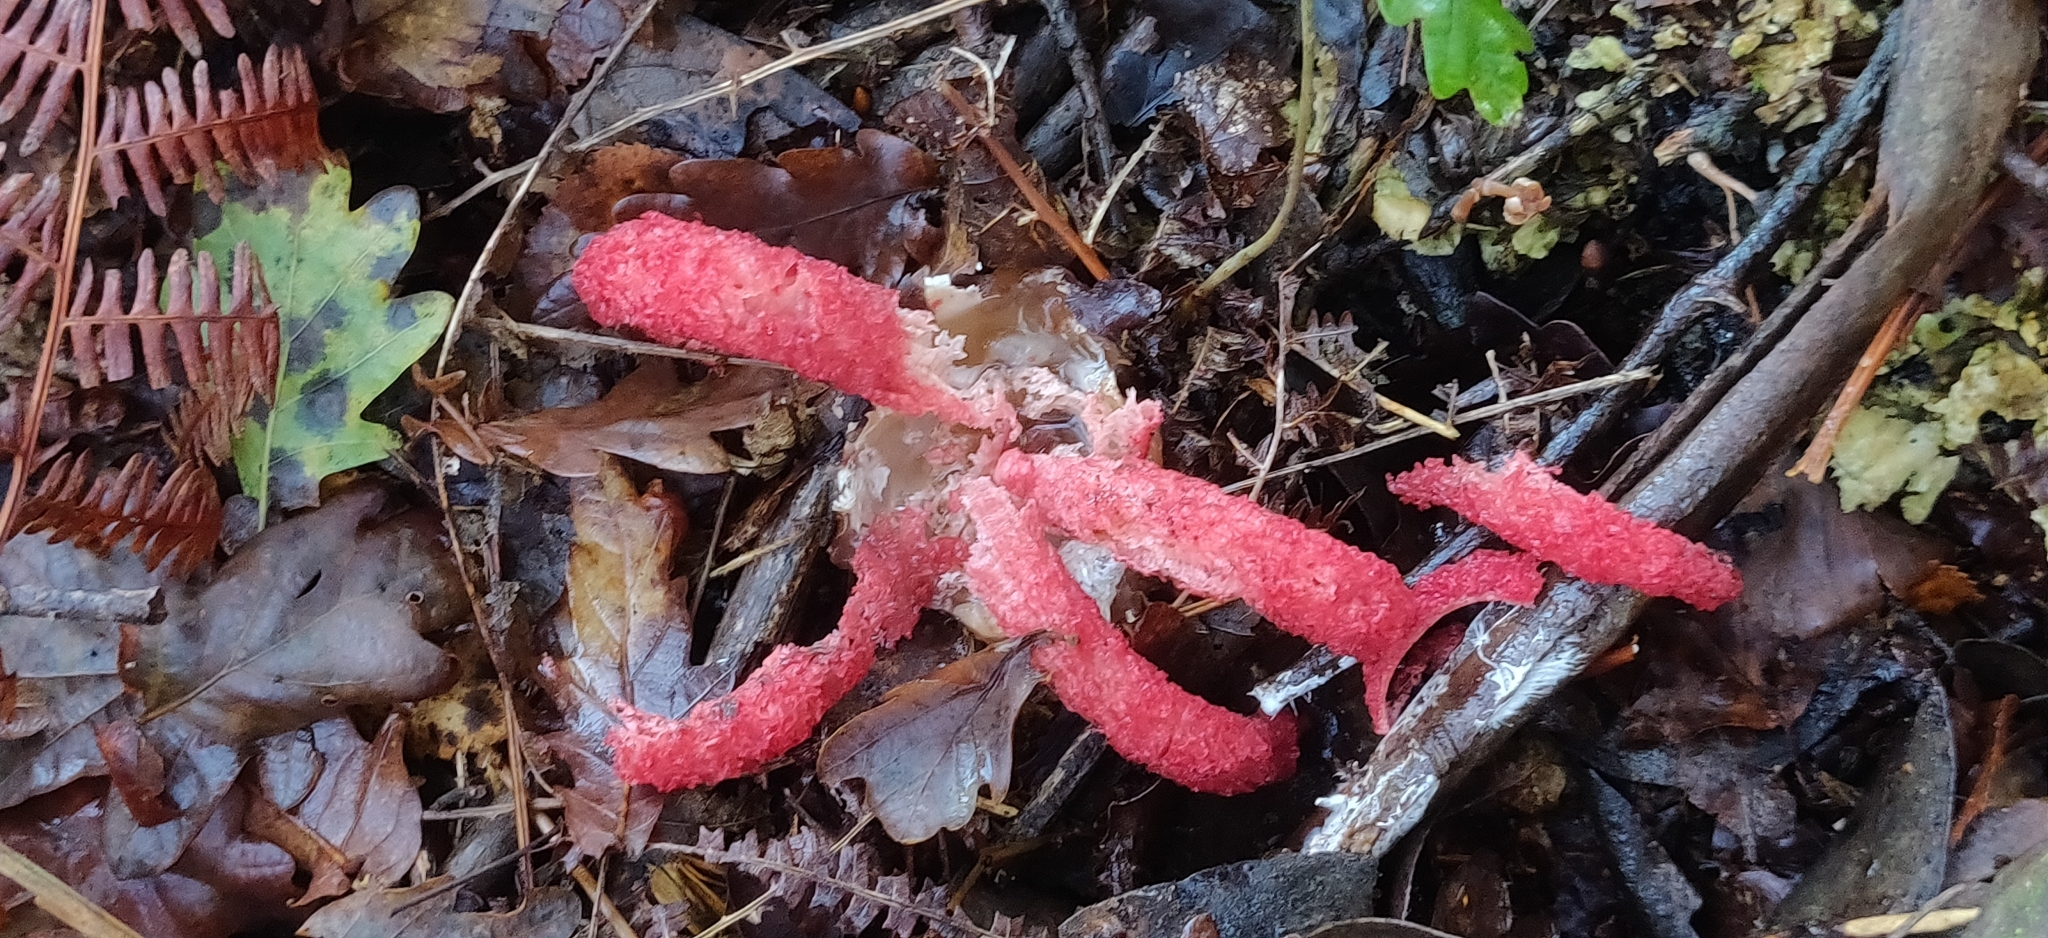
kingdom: Fungi
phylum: Basidiomycota
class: Agaricomycetes
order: Phallales
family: Phallaceae
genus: Clathrus
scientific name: Clathrus archeri
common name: Devil's fingers
